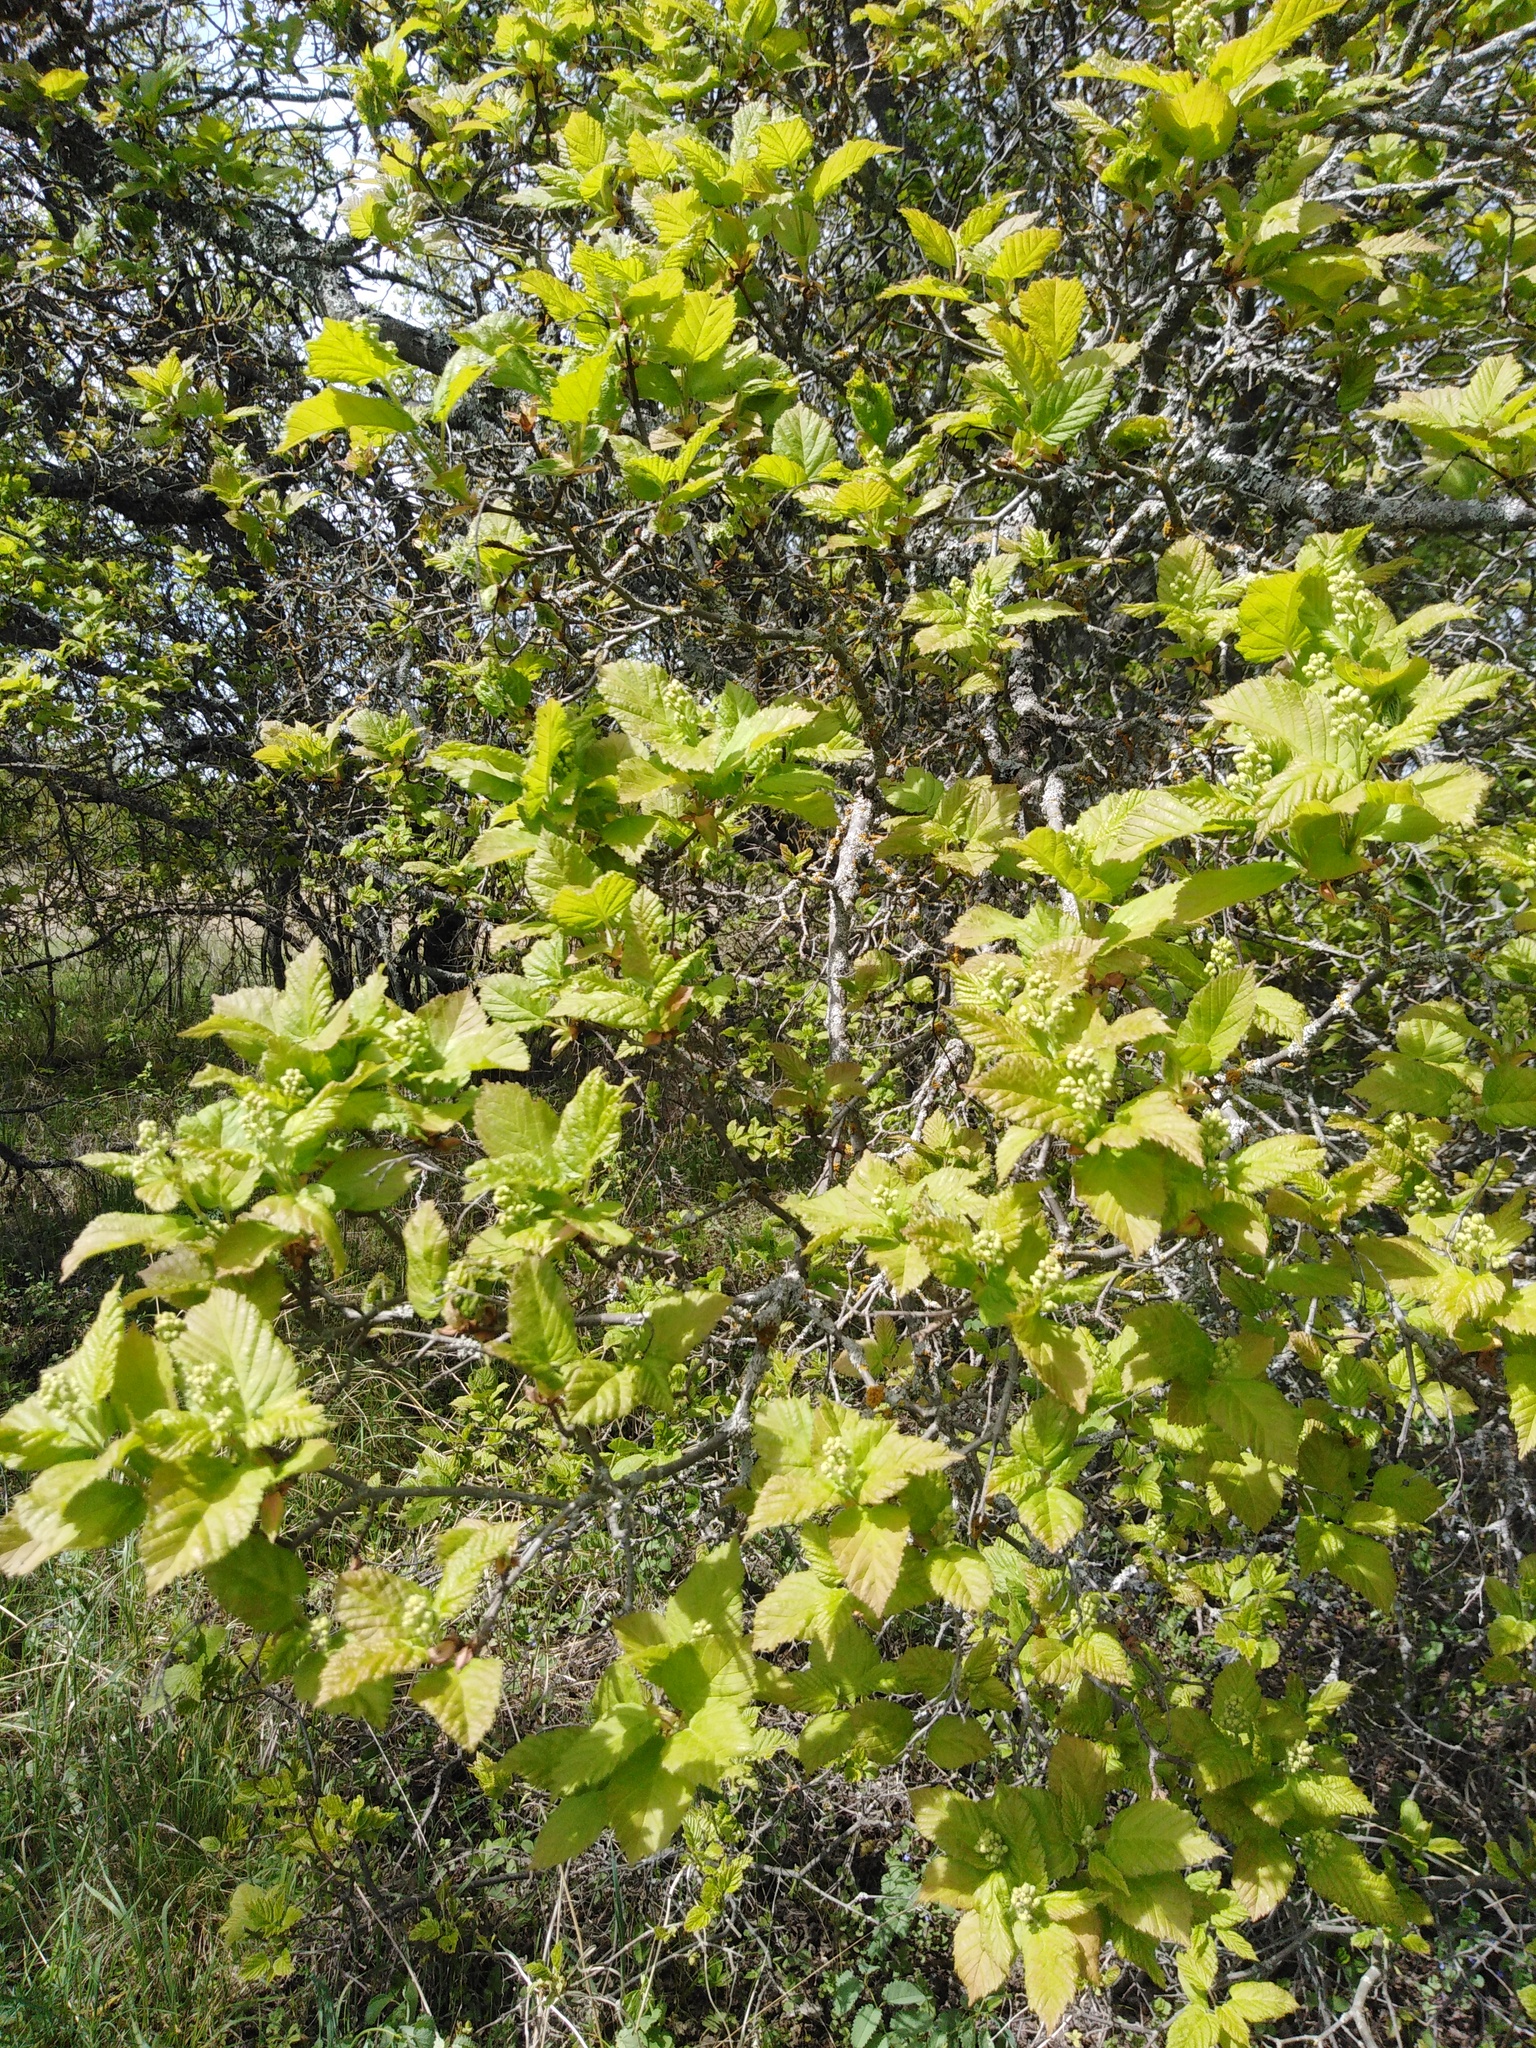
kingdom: Plantae
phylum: Tracheophyta
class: Magnoliopsida
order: Sapindales
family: Sapindaceae
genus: Acer
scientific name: Acer tataricum
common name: Tartar maple
